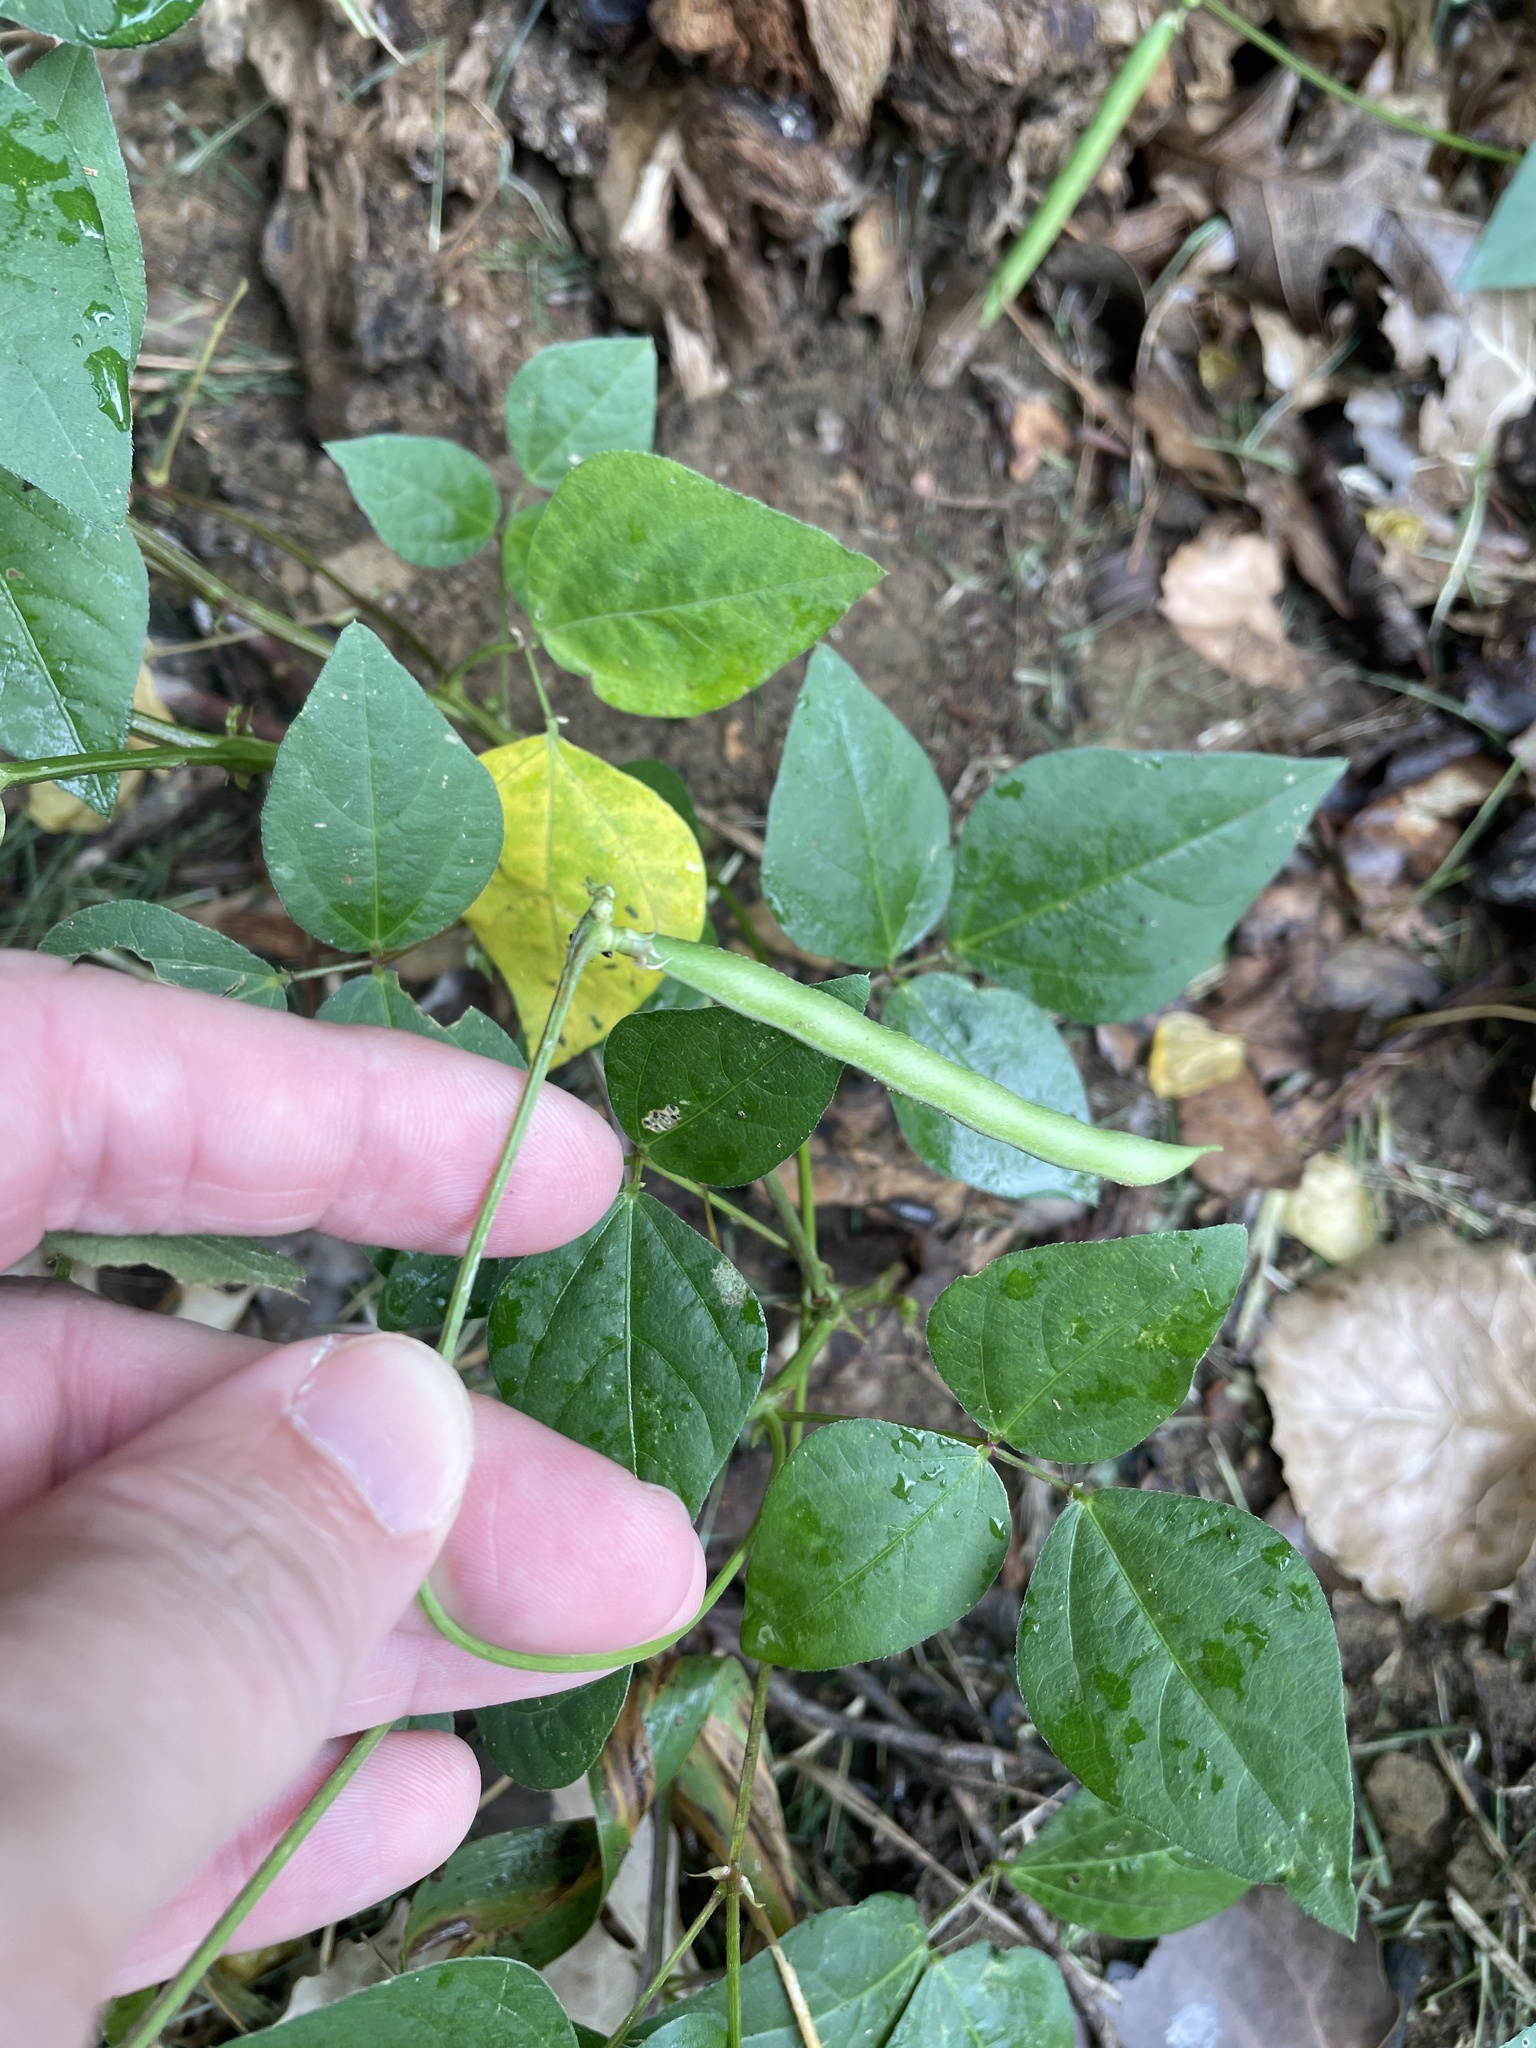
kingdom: Plantae
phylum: Tracheophyta
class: Magnoliopsida
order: Fabales
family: Fabaceae
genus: Strophostyles
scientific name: Strophostyles helvola
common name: Trailing wild bean
